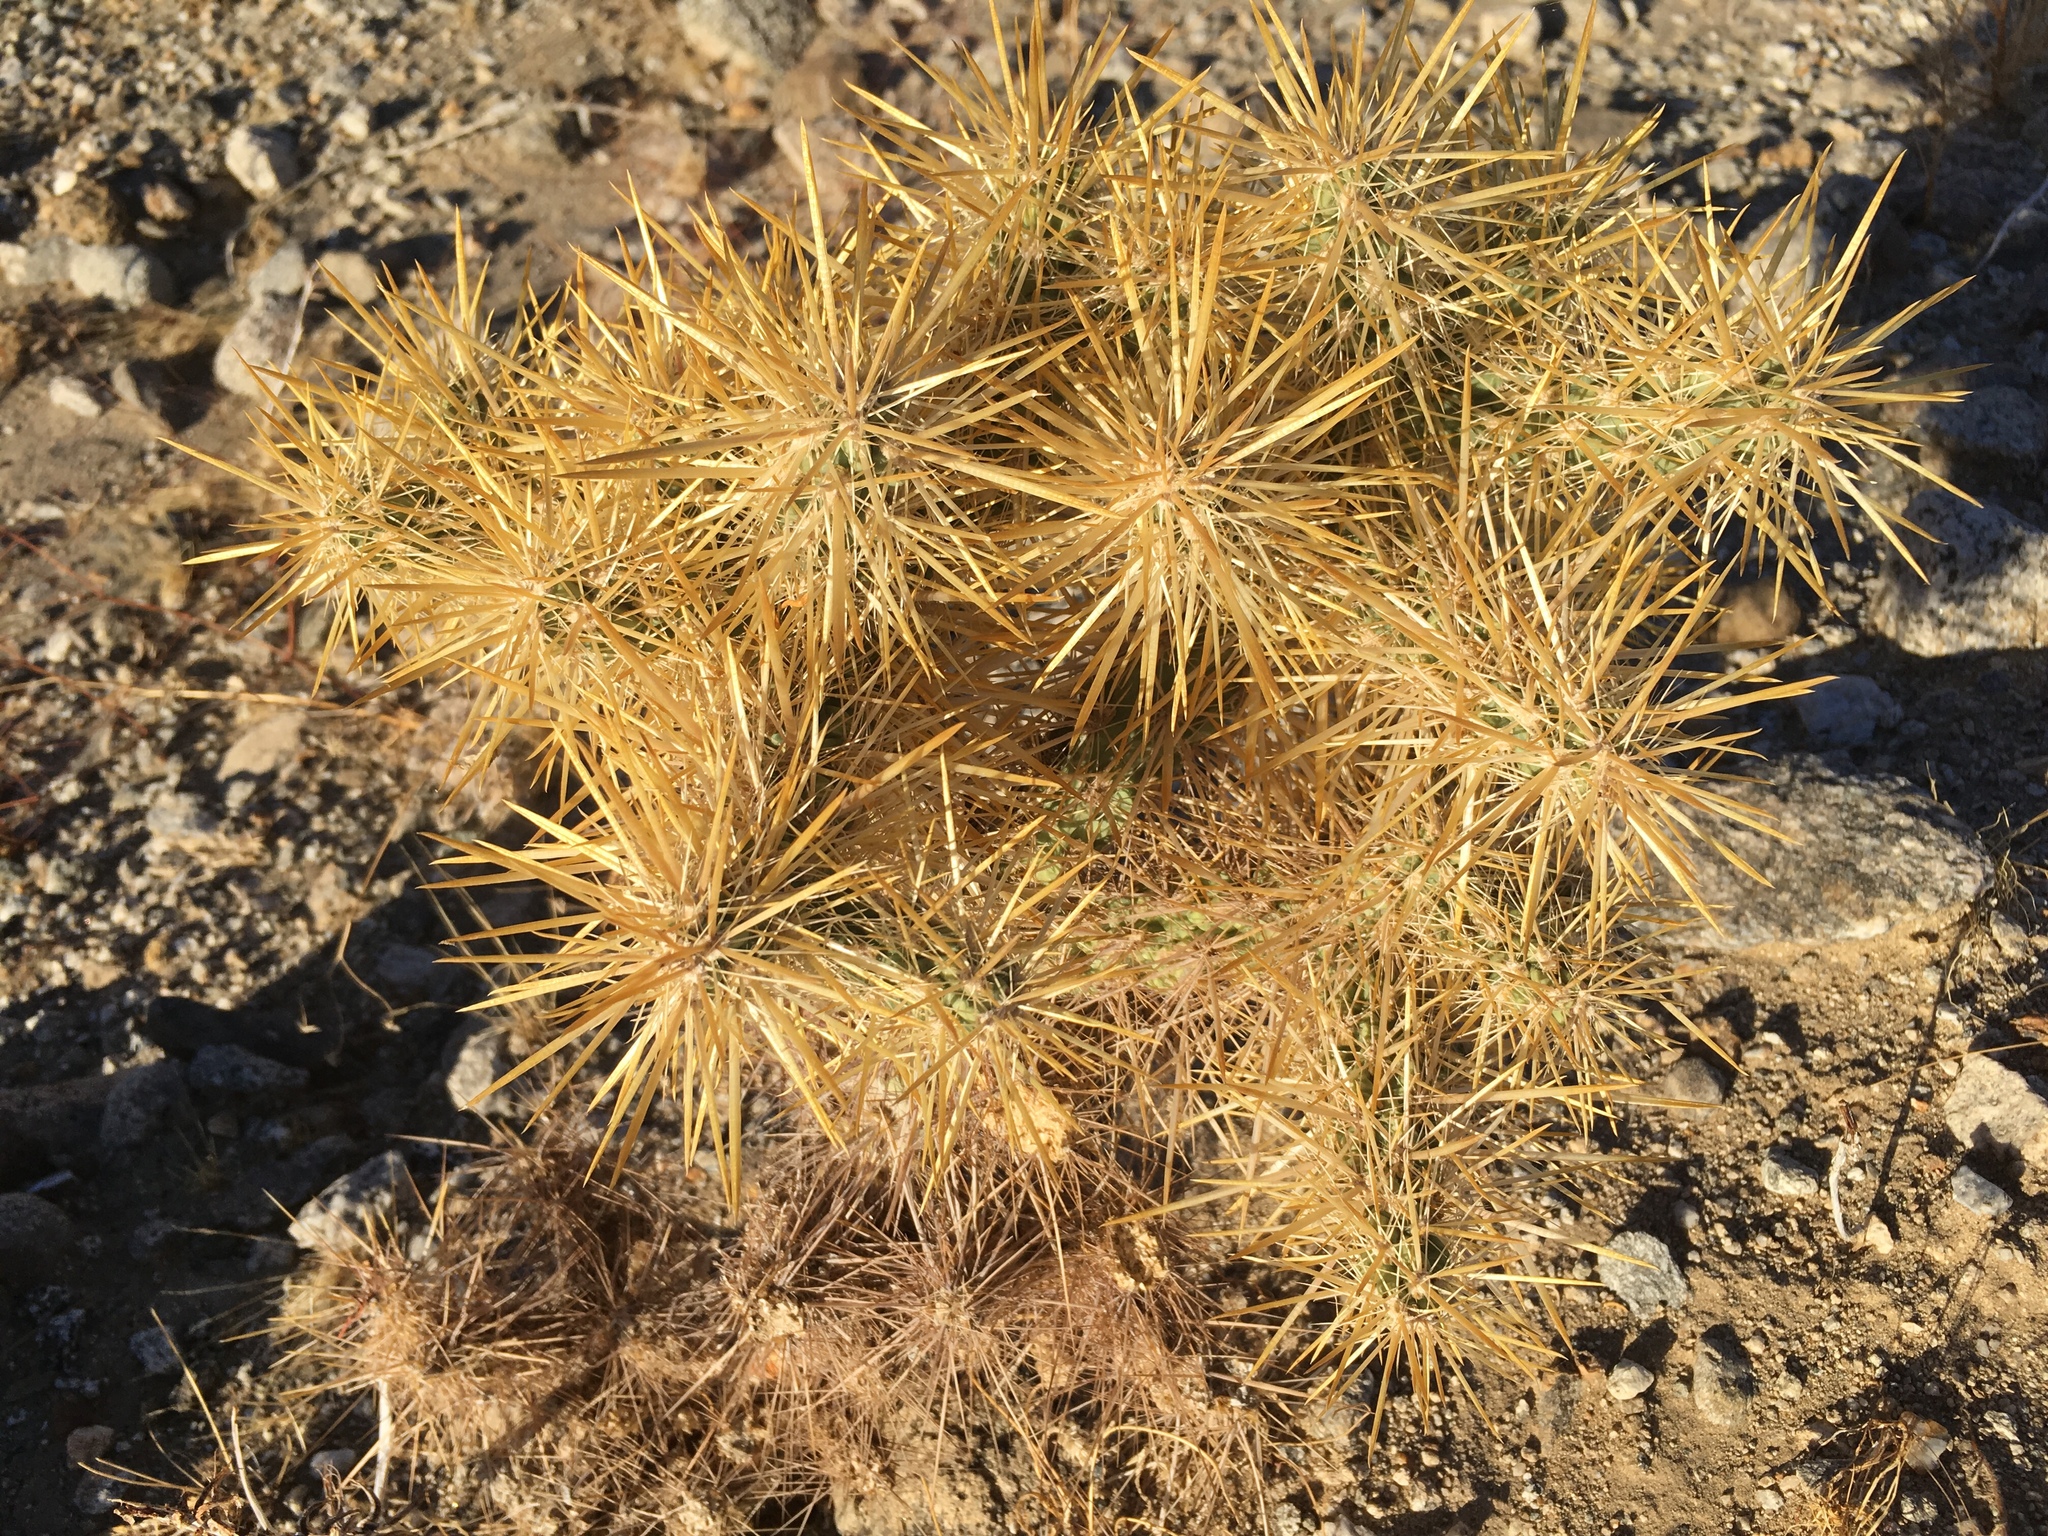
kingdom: Plantae
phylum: Tracheophyta
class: Magnoliopsida
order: Caryophyllales
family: Cactaceae
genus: Cylindropuntia
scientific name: Cylindropuntia echinocarpa
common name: Ground cholla
